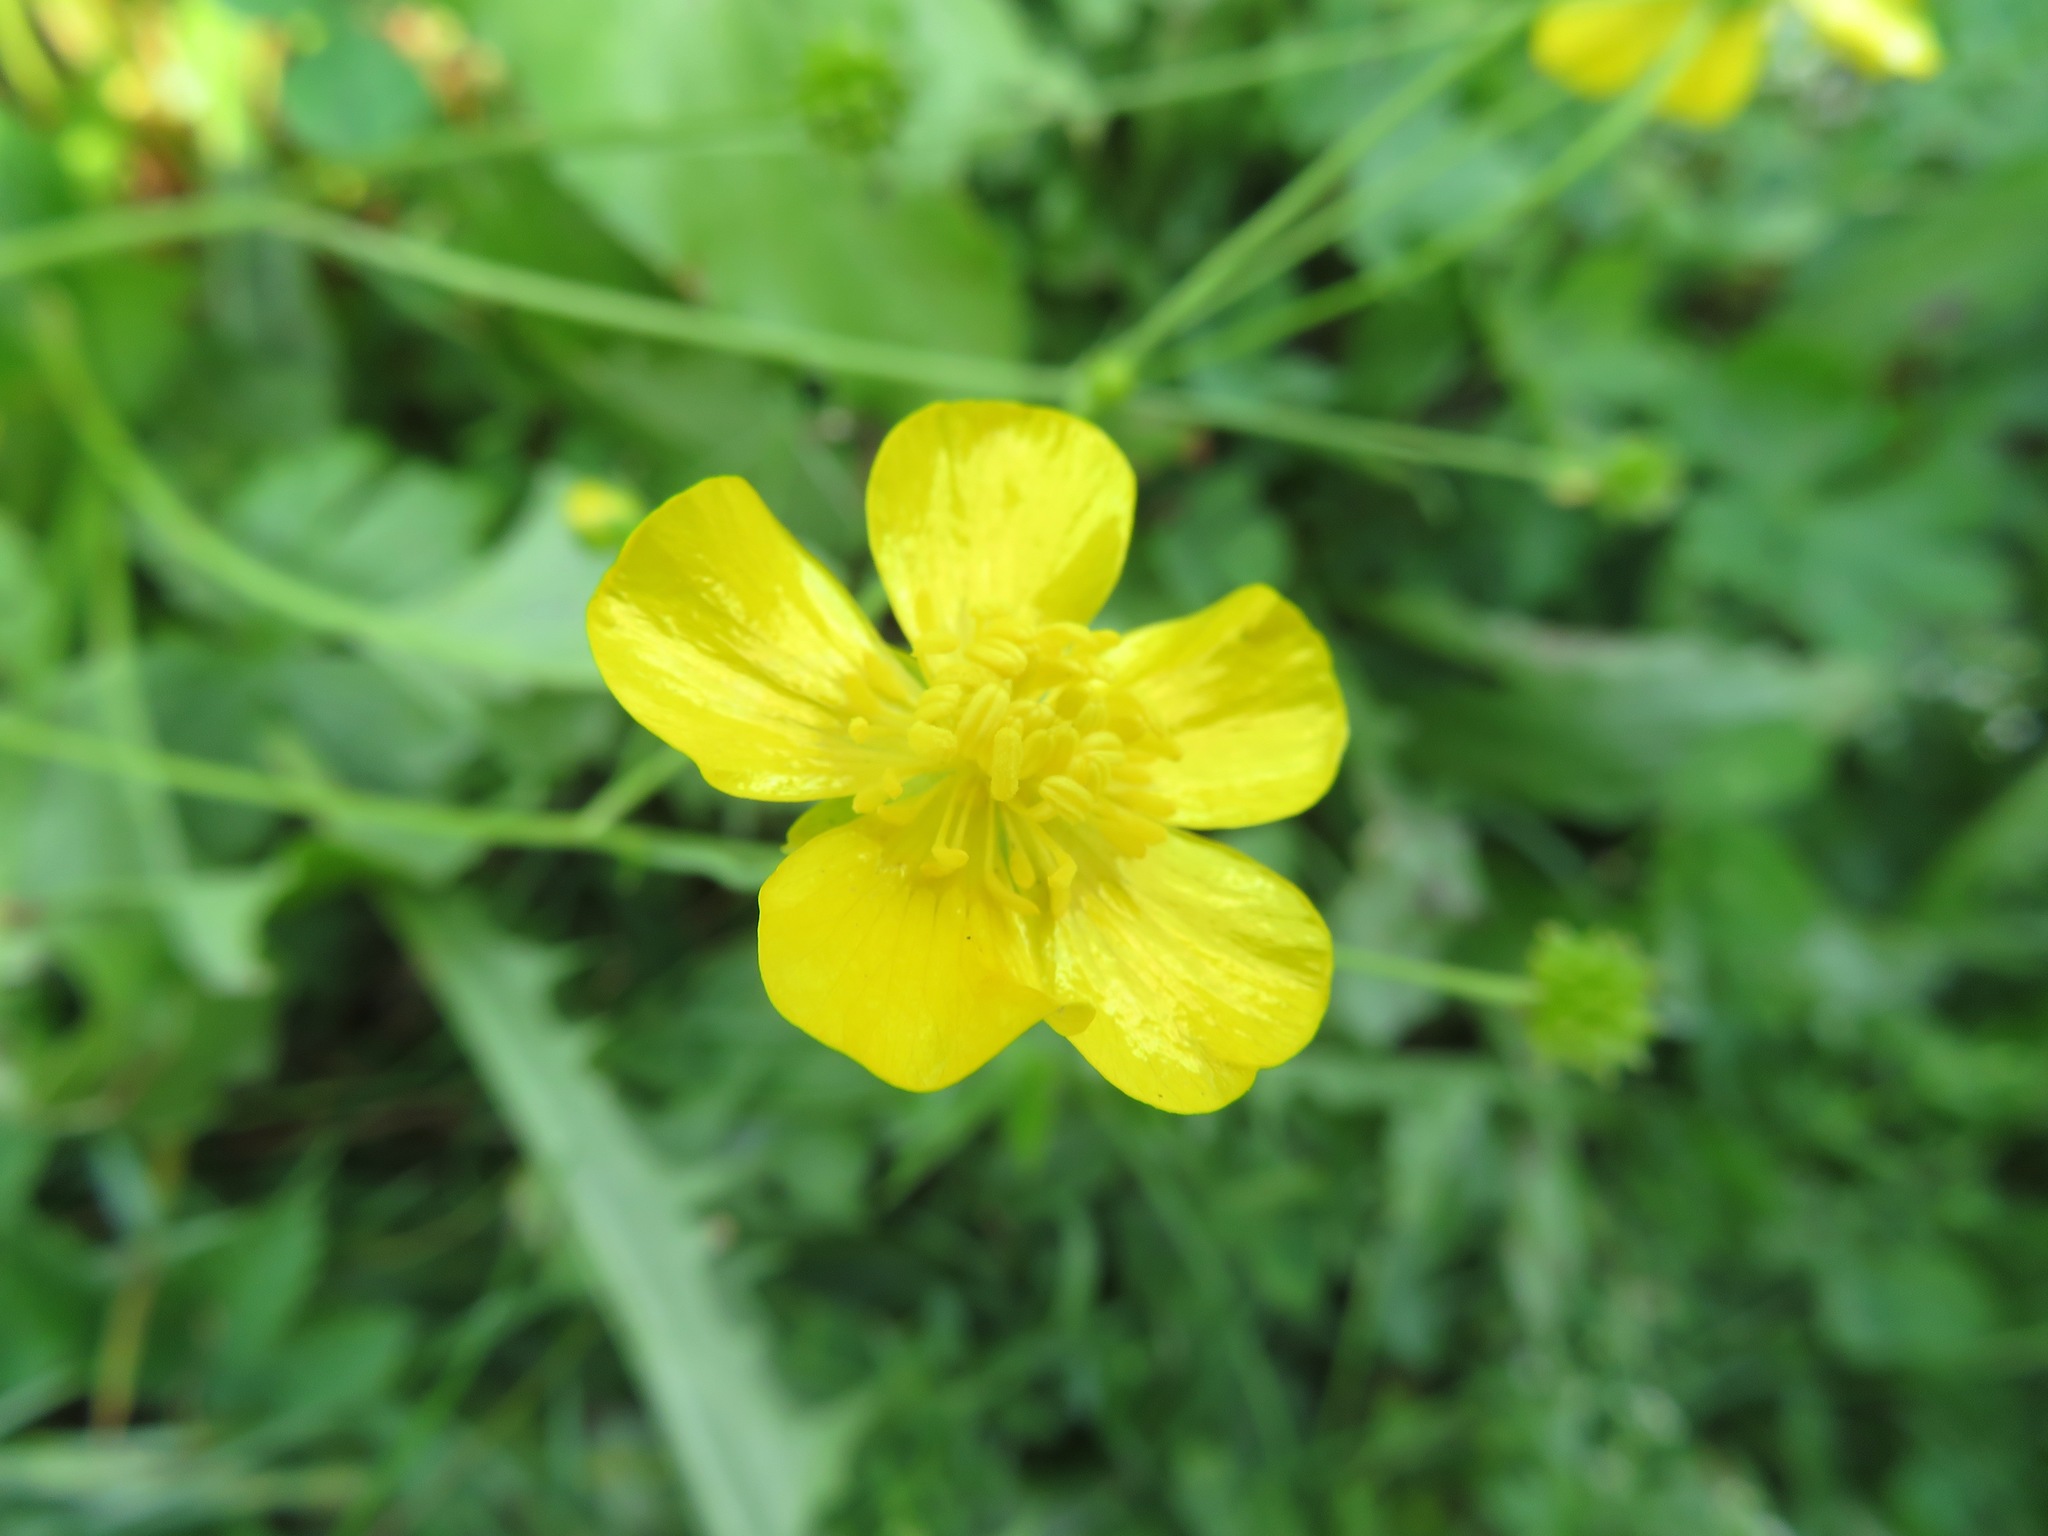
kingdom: Plantae
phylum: Tracheophyta
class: Magnoliopsida
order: Ranunculales
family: Ranunculaceae
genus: Ranunculus
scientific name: Ranunculus acris
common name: Meadow buttercup
